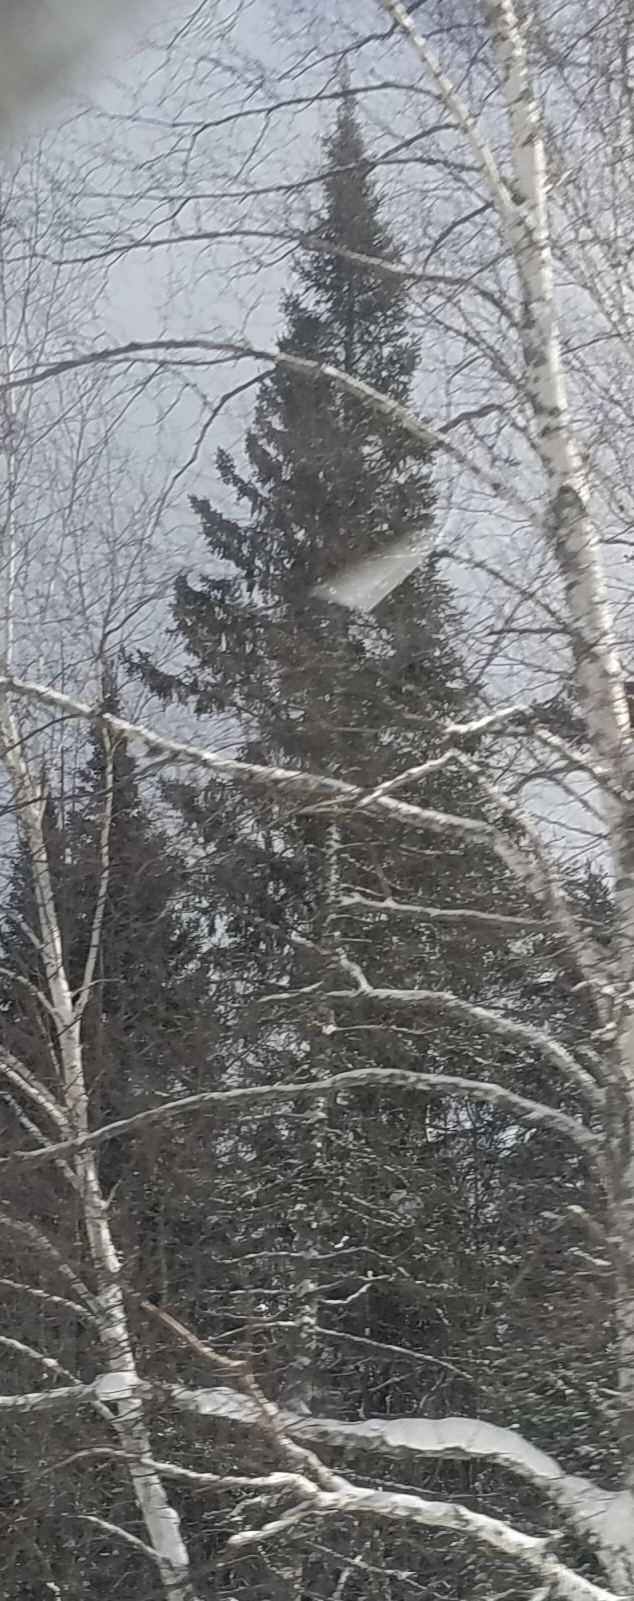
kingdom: Plantae
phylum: Tracheophyta
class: Pinopsida
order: Pinales
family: Pinaceae
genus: Pinus
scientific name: Pinus strobus
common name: Weymouth pine
